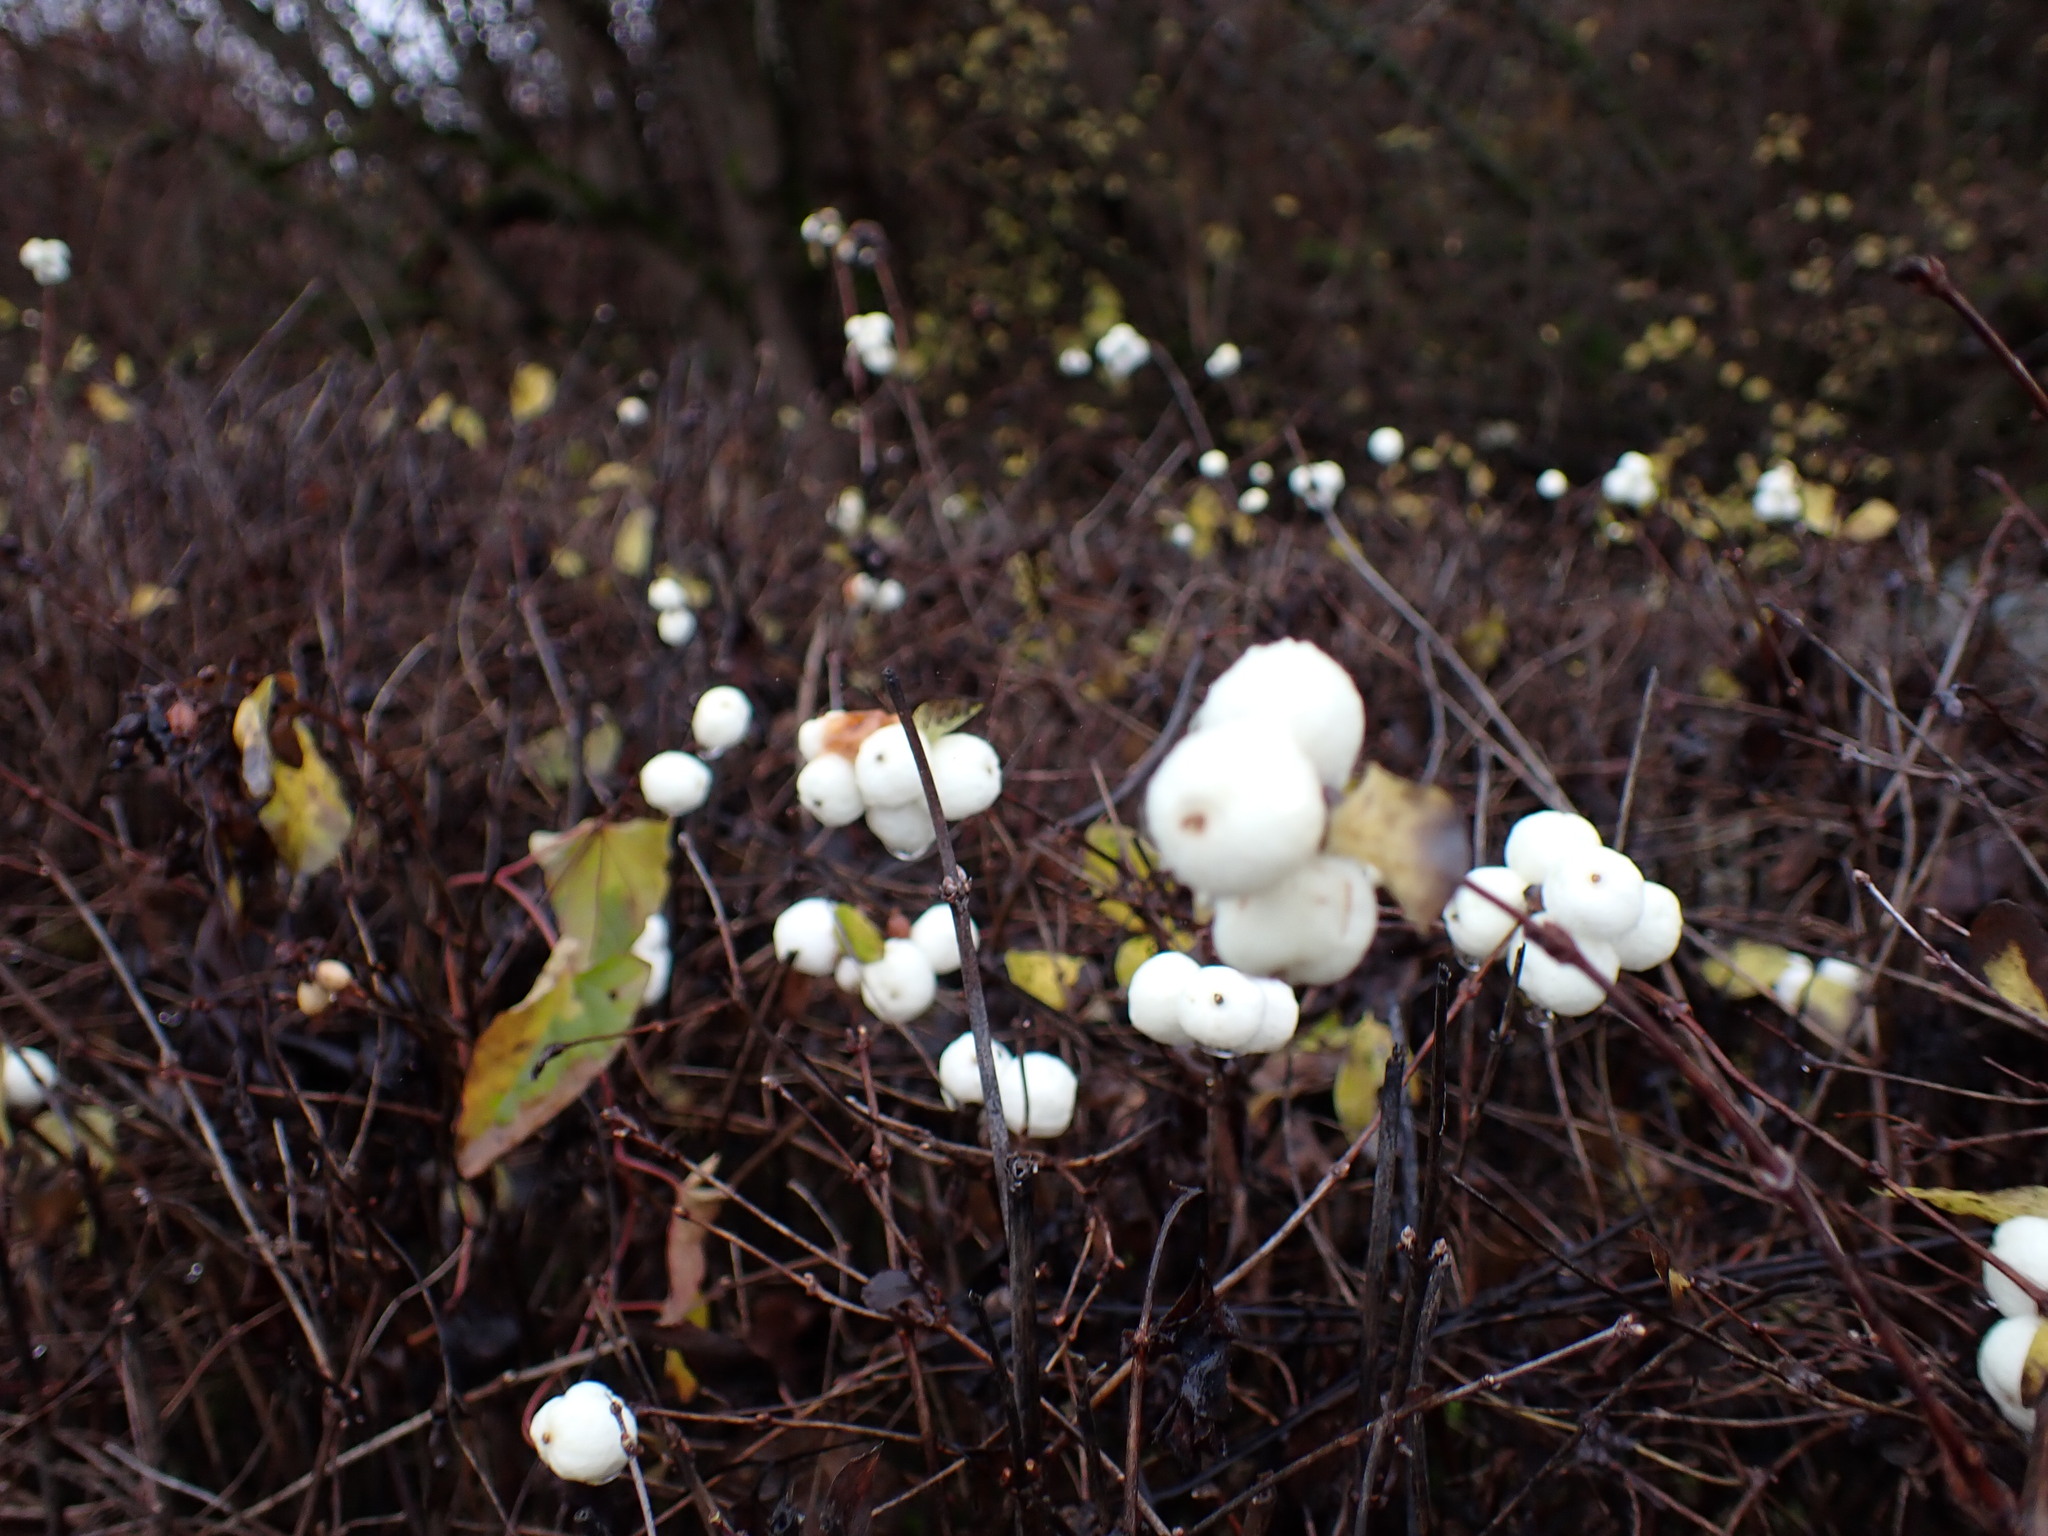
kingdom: Plantae
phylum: Tracheophyta
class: Magnoliopsida
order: Dipsacales
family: Caprifoliaceae
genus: Symphoricarpos
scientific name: Symphoricarpos albus
